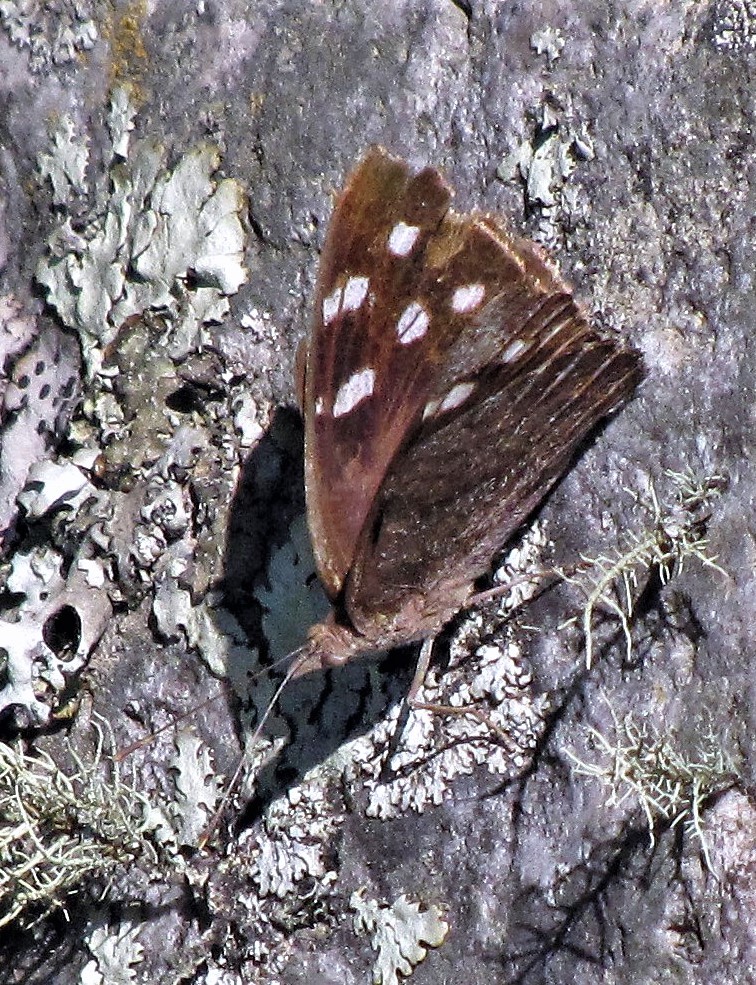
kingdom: Animalia
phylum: Arthropoda
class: Insecta
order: Lepidoptera
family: Nymphalidae
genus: Eunica
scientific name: Eunica tatila
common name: Florida purplewing
